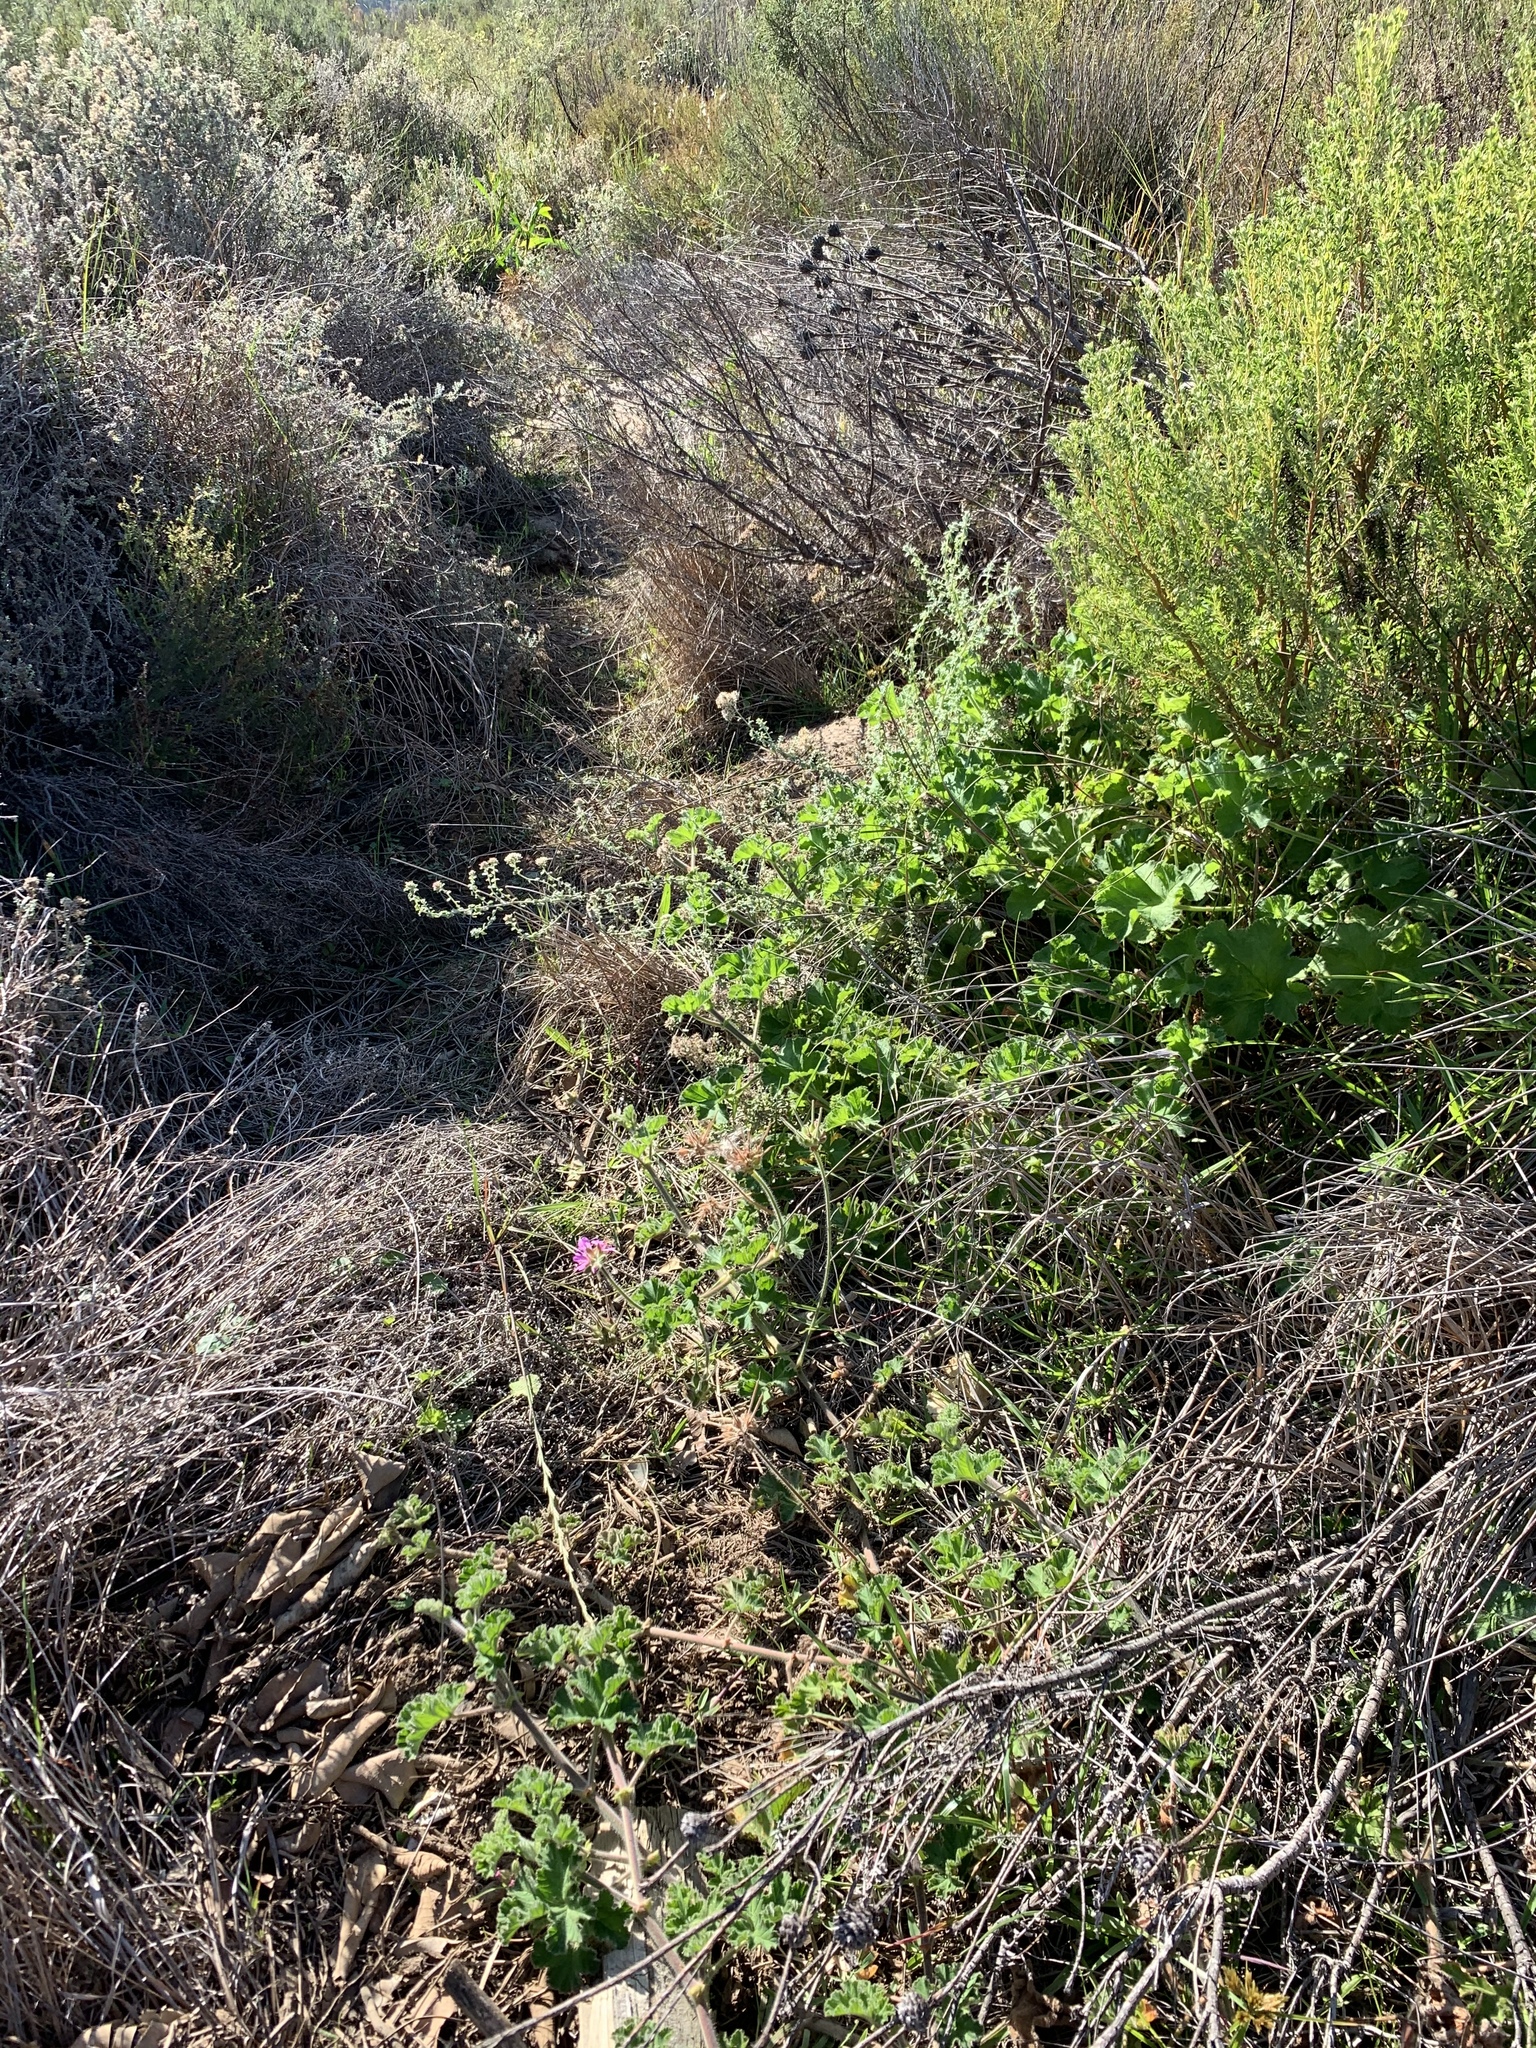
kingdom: Plantae
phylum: Tracheophyta
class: Magnoliopsida
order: Geraniales
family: Geraniaceae
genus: Pelargonium
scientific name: Pelargonium capitatum
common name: Rose scented geranium
